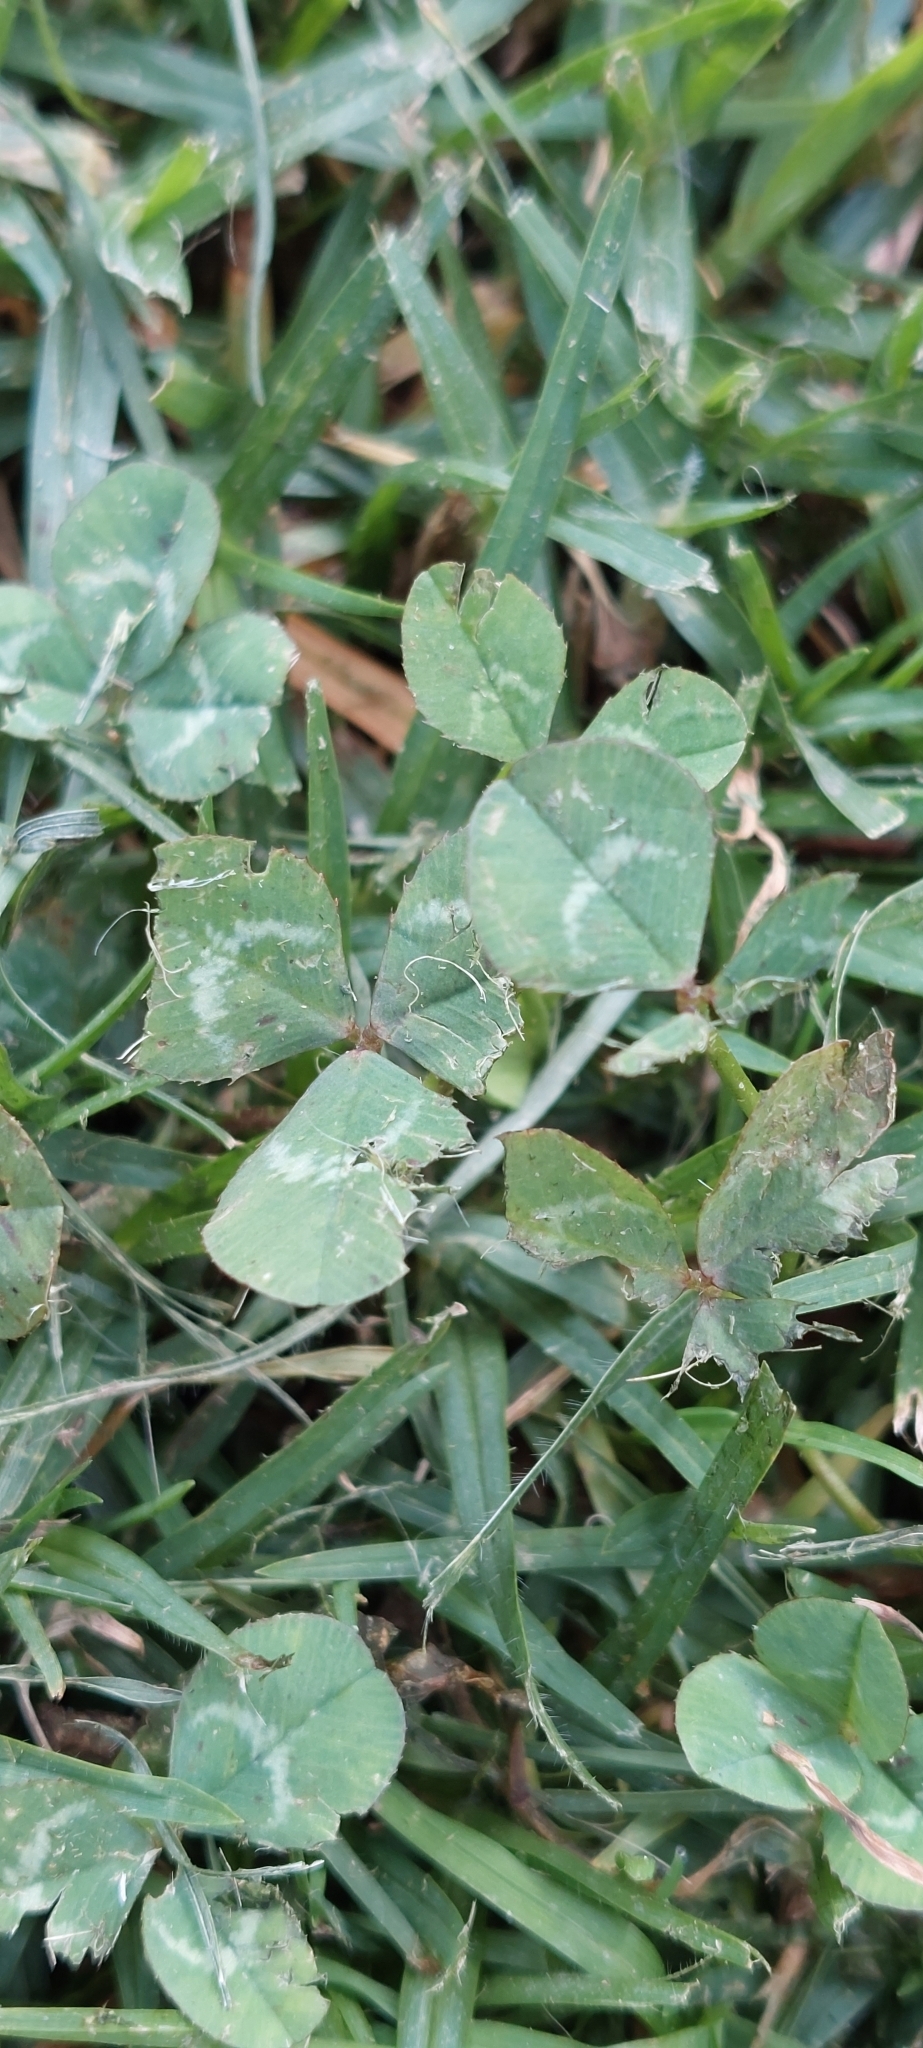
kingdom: Plantae
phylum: Tracheophyta
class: Magnoliopsida
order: Fabales
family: Fabaceae
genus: Trifolium
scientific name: Trifolium repens
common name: White clover
